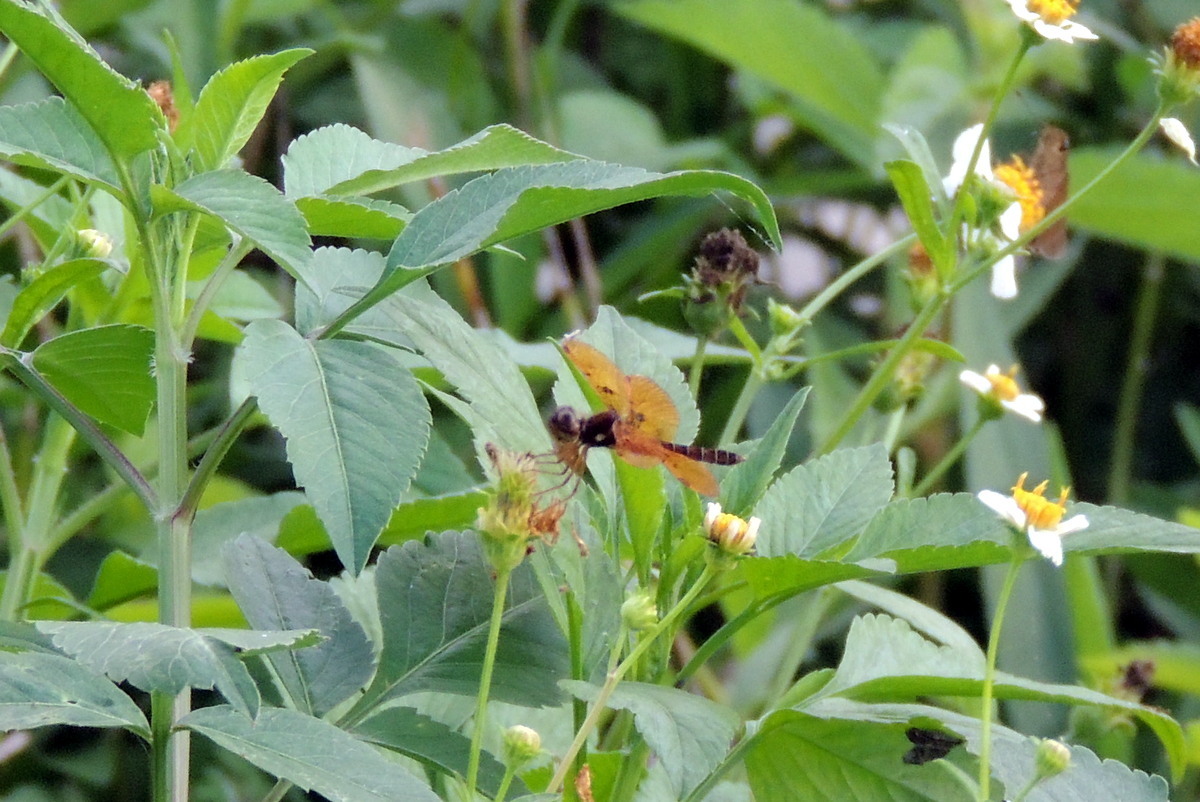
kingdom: Animalia
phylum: Arthropoda
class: Insecta
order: Odonata
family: Libellulidae
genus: Perithemis
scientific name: Perithemis tenera
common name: Eastern amberwing
